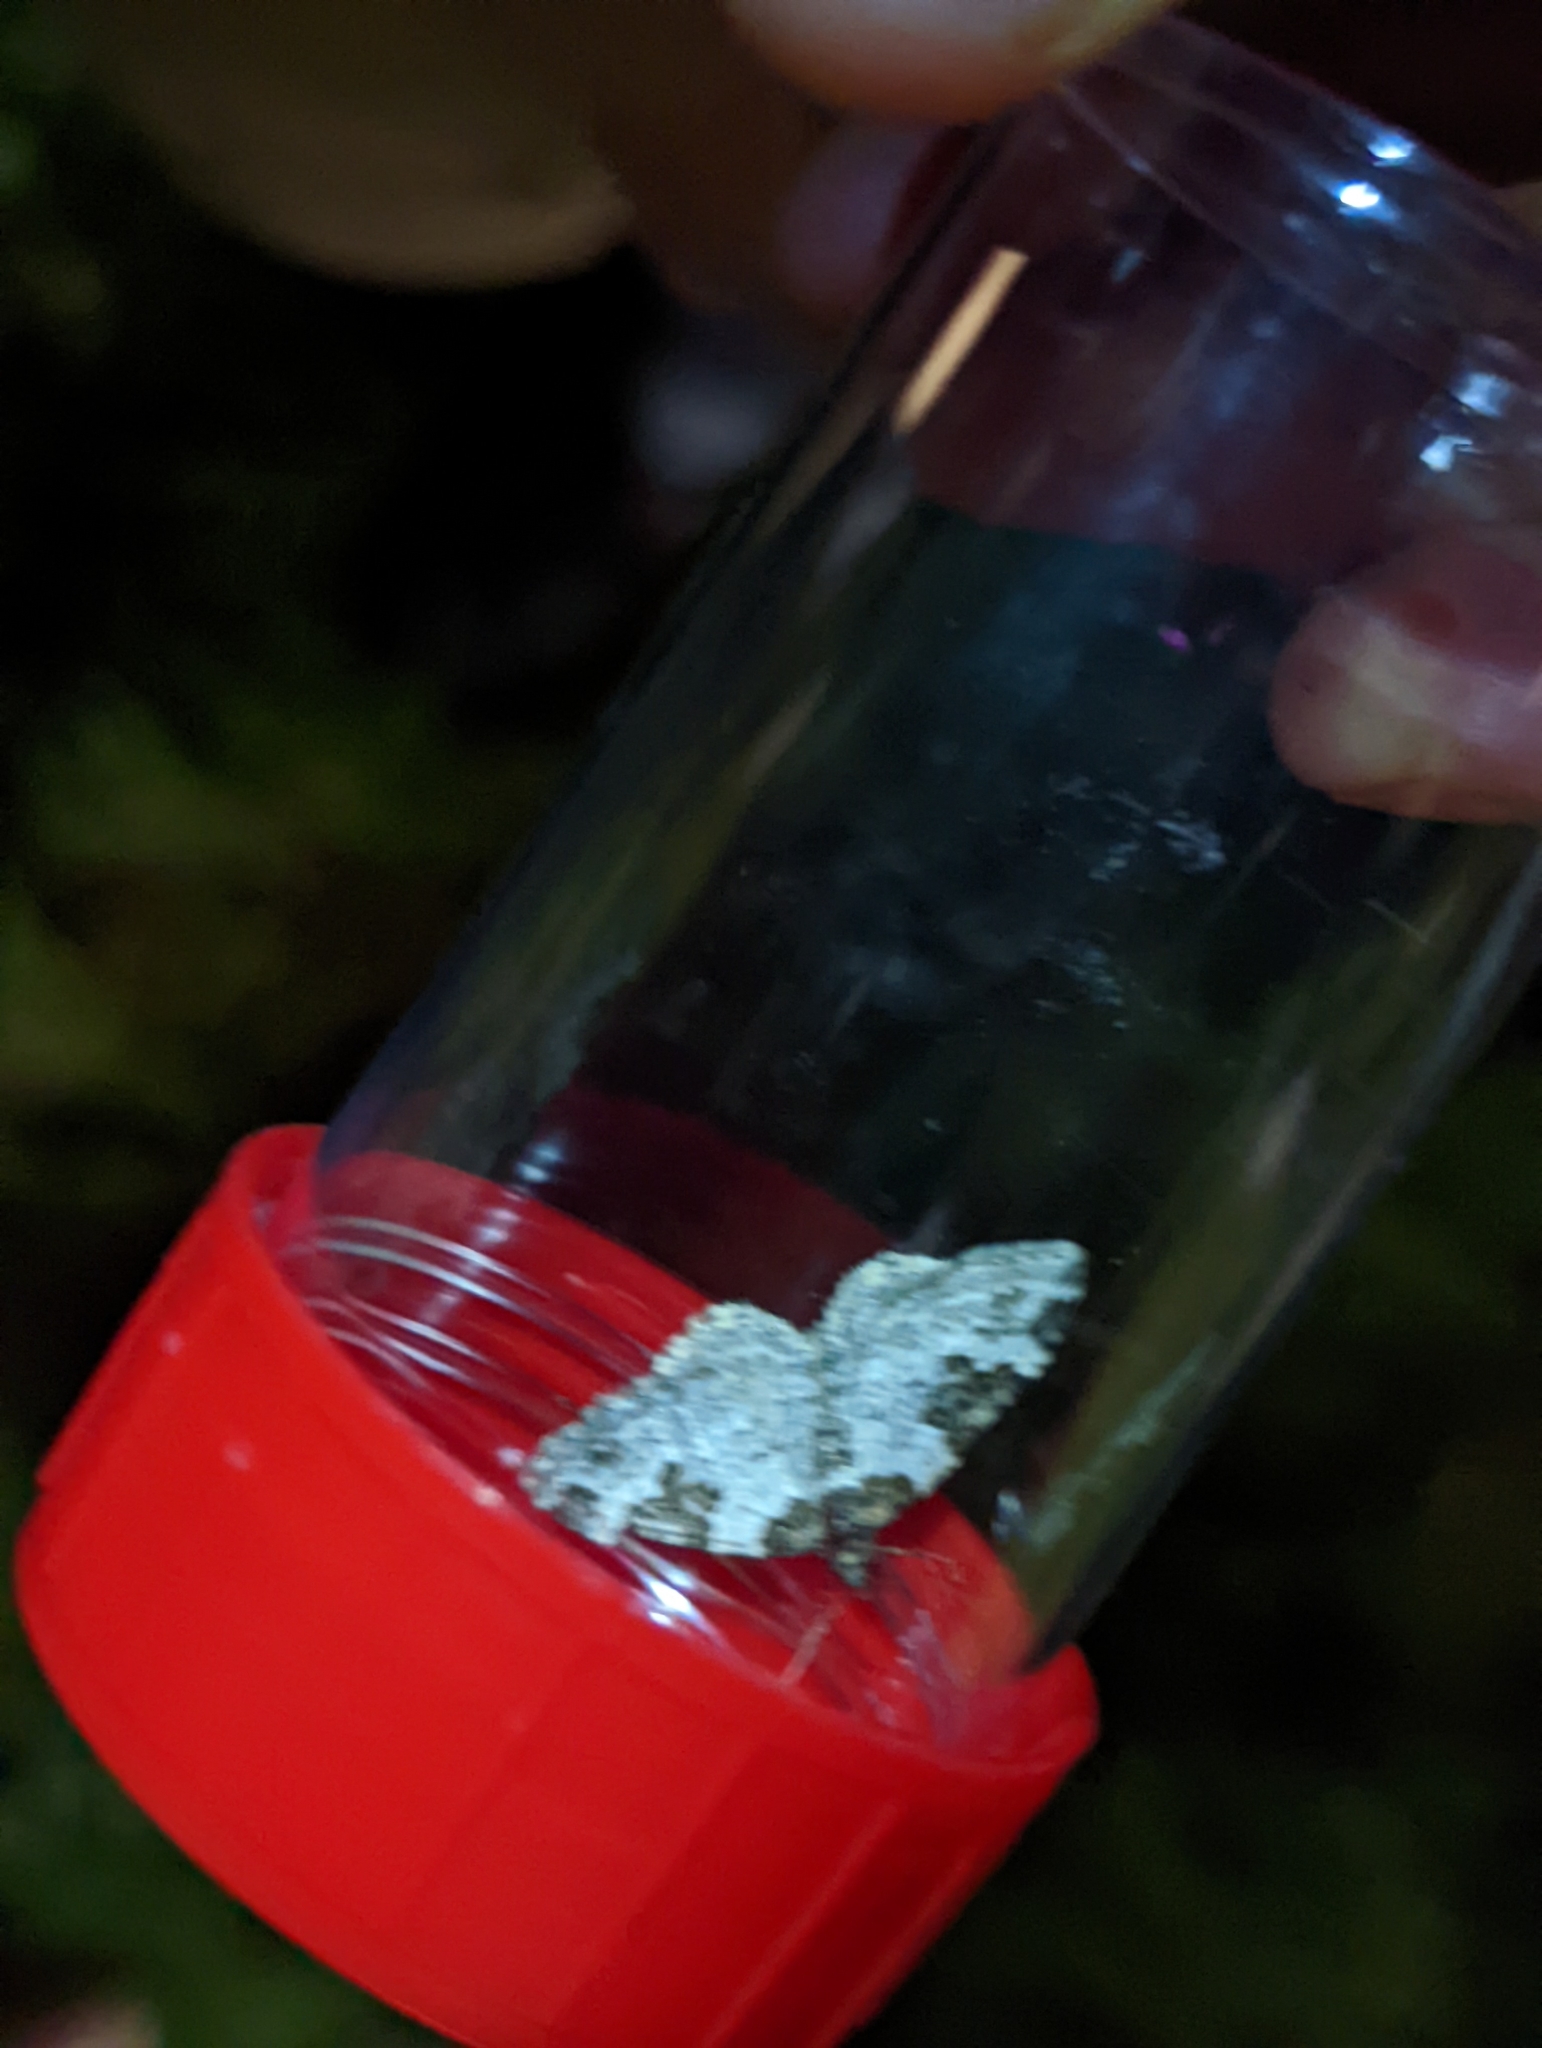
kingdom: Animalia
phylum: Arthropoda
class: Insecta
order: Lepidoptera
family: Geometridae
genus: Xanthorhoe
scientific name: Xanthorhoe fluctuata
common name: Garden carpet
